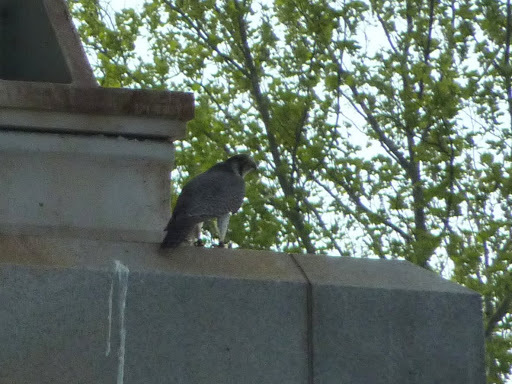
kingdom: Animalia
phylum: Chordata
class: Aves
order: Falconiformes
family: Falconidae
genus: Falco
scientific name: Falco peregrinus
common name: Peregrine falcon
